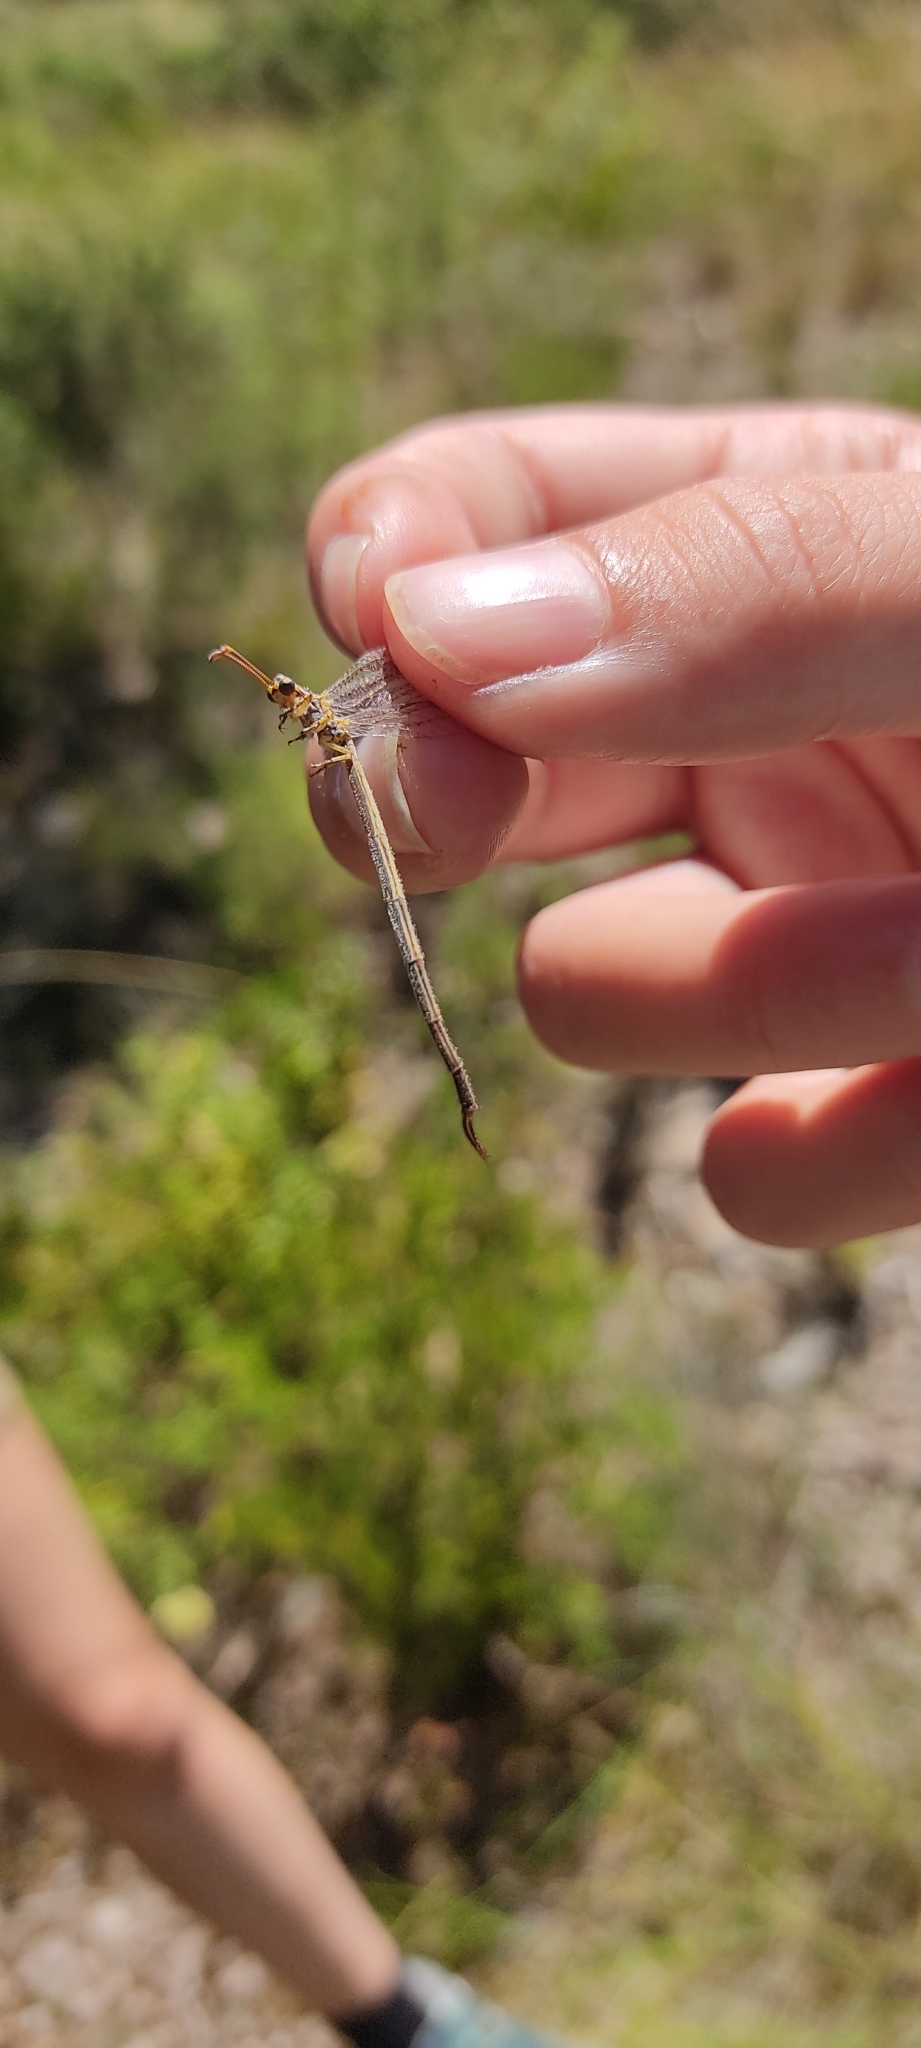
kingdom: Animalia
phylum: Arthropoda
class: Insecta
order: Neuroptera
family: Myrmeleontidae
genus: Macronemurus
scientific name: Macronemurus appendiculatus
